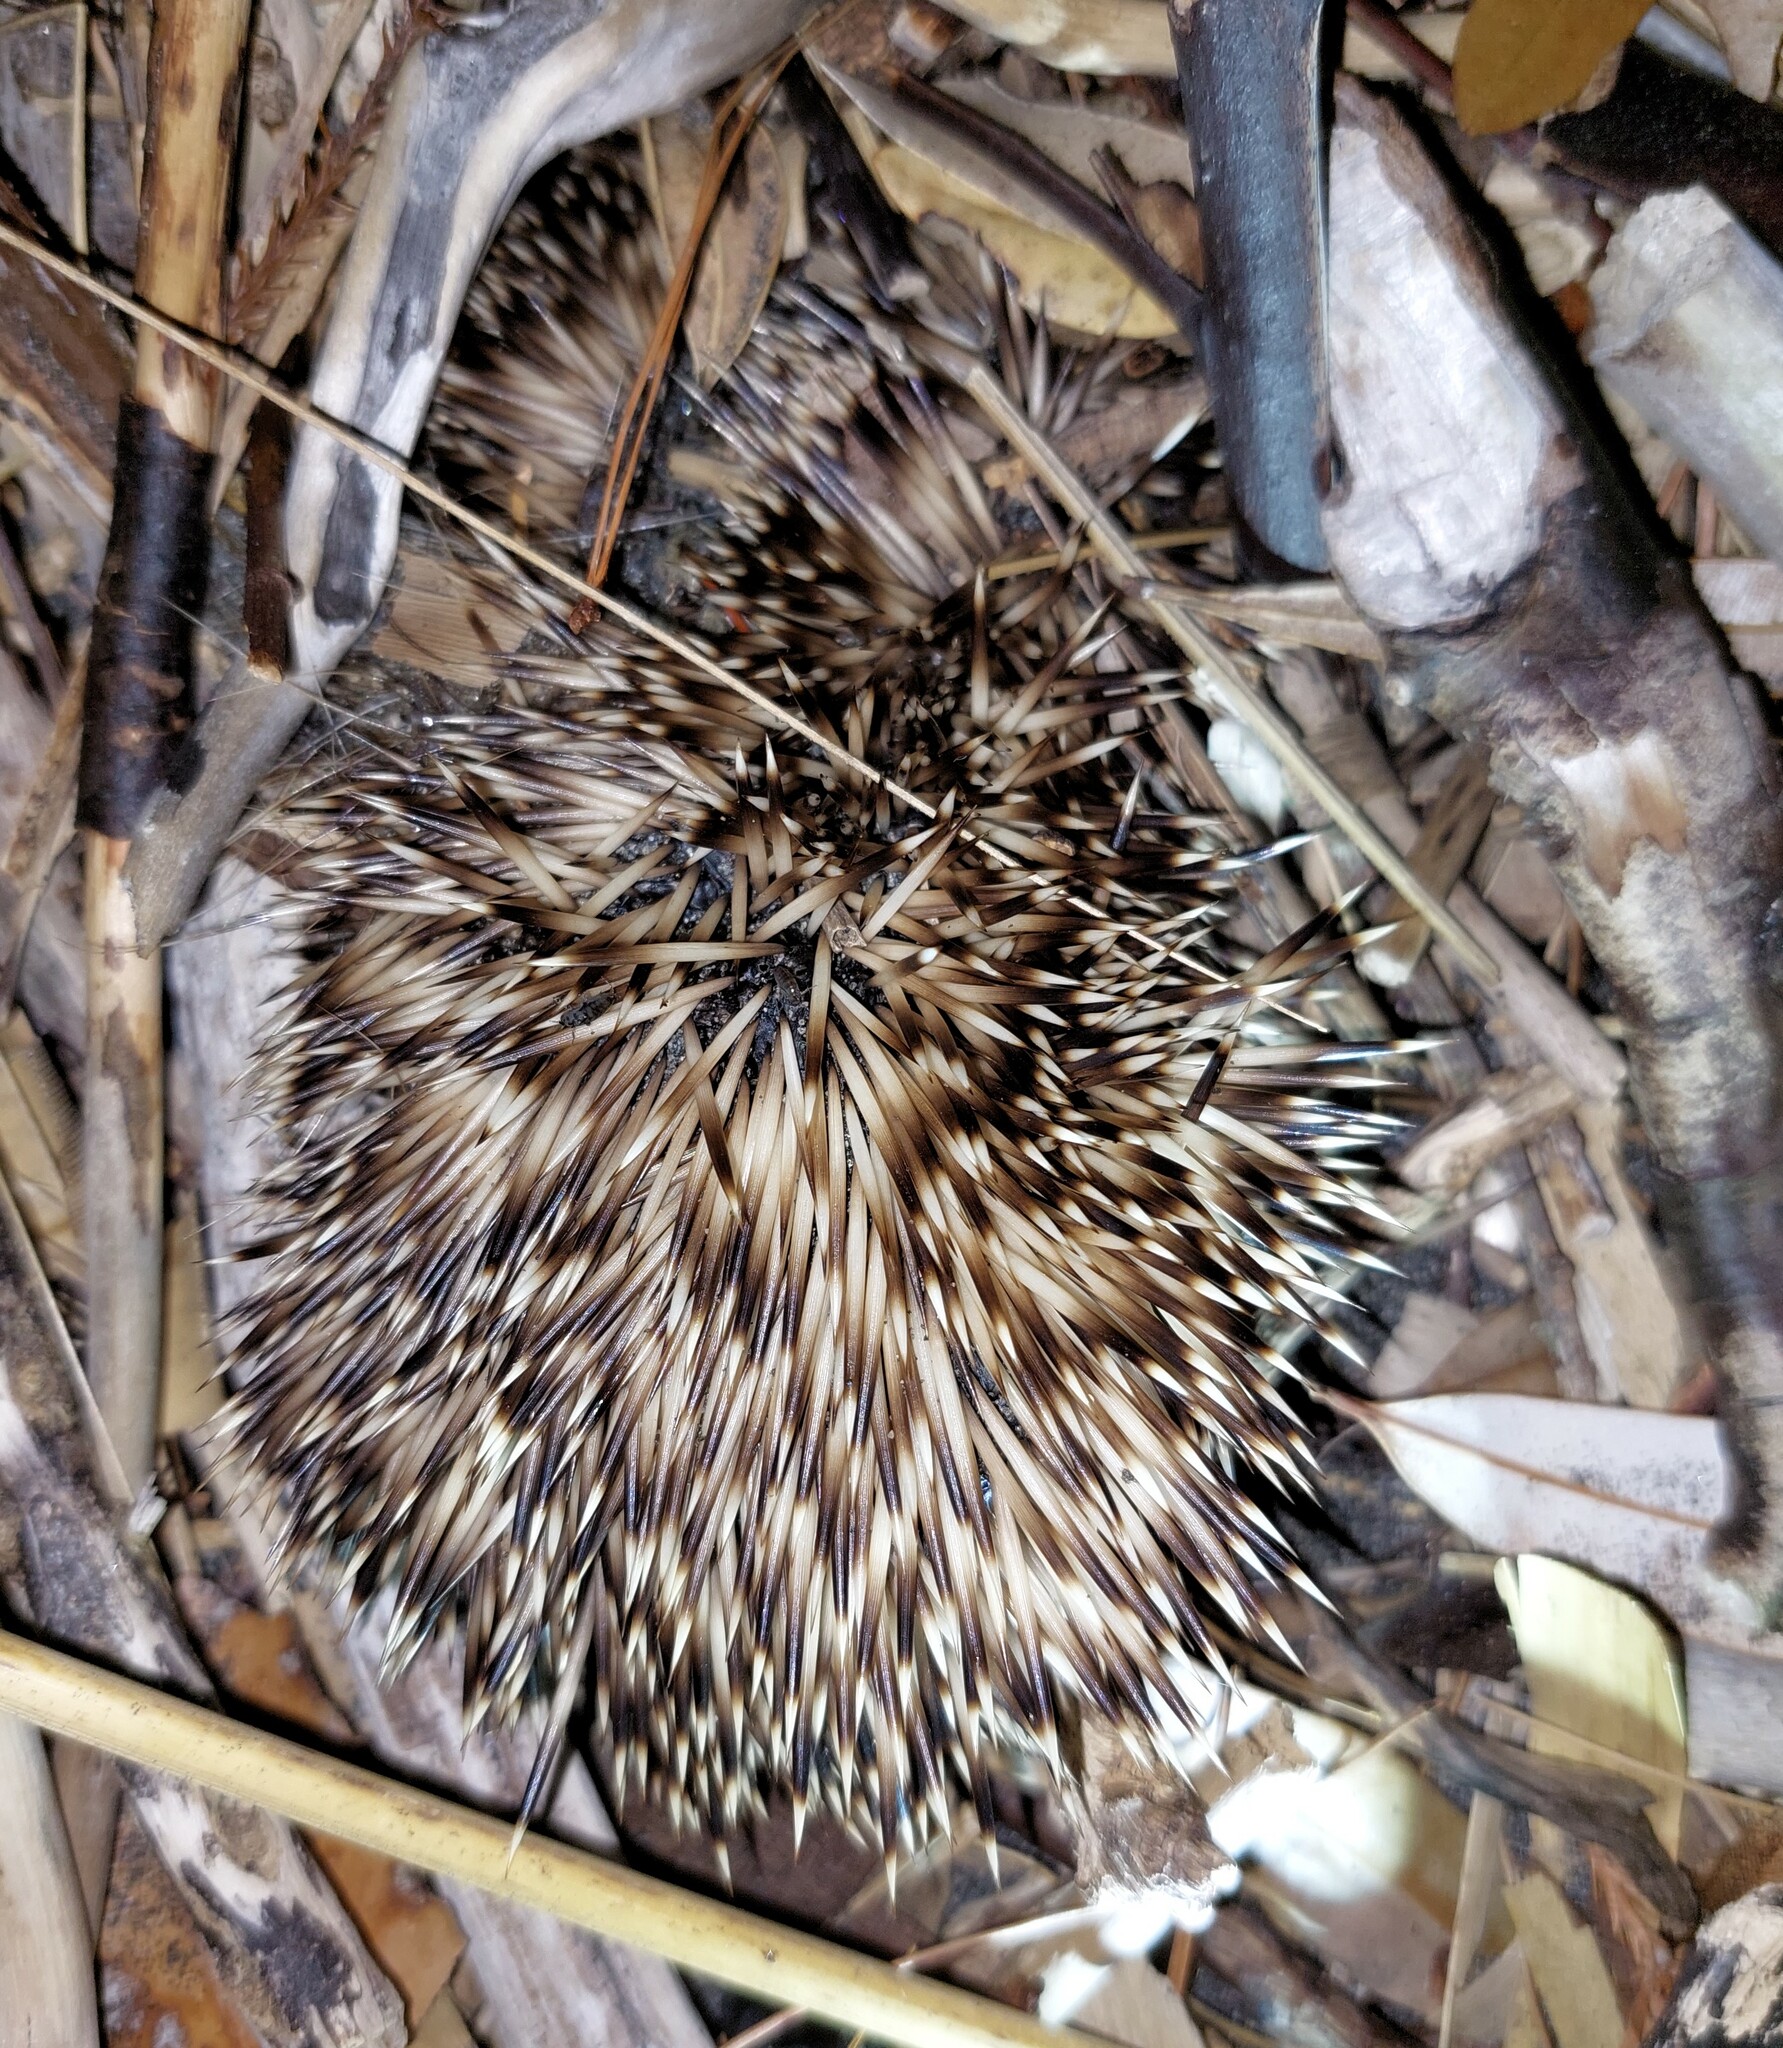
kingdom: Animalia
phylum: Chordata
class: Mammalia
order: Erinaceomorpha
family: Erinaceidae
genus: Erinaceus
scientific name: Erinaceus europaeus
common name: West european hedgehog
